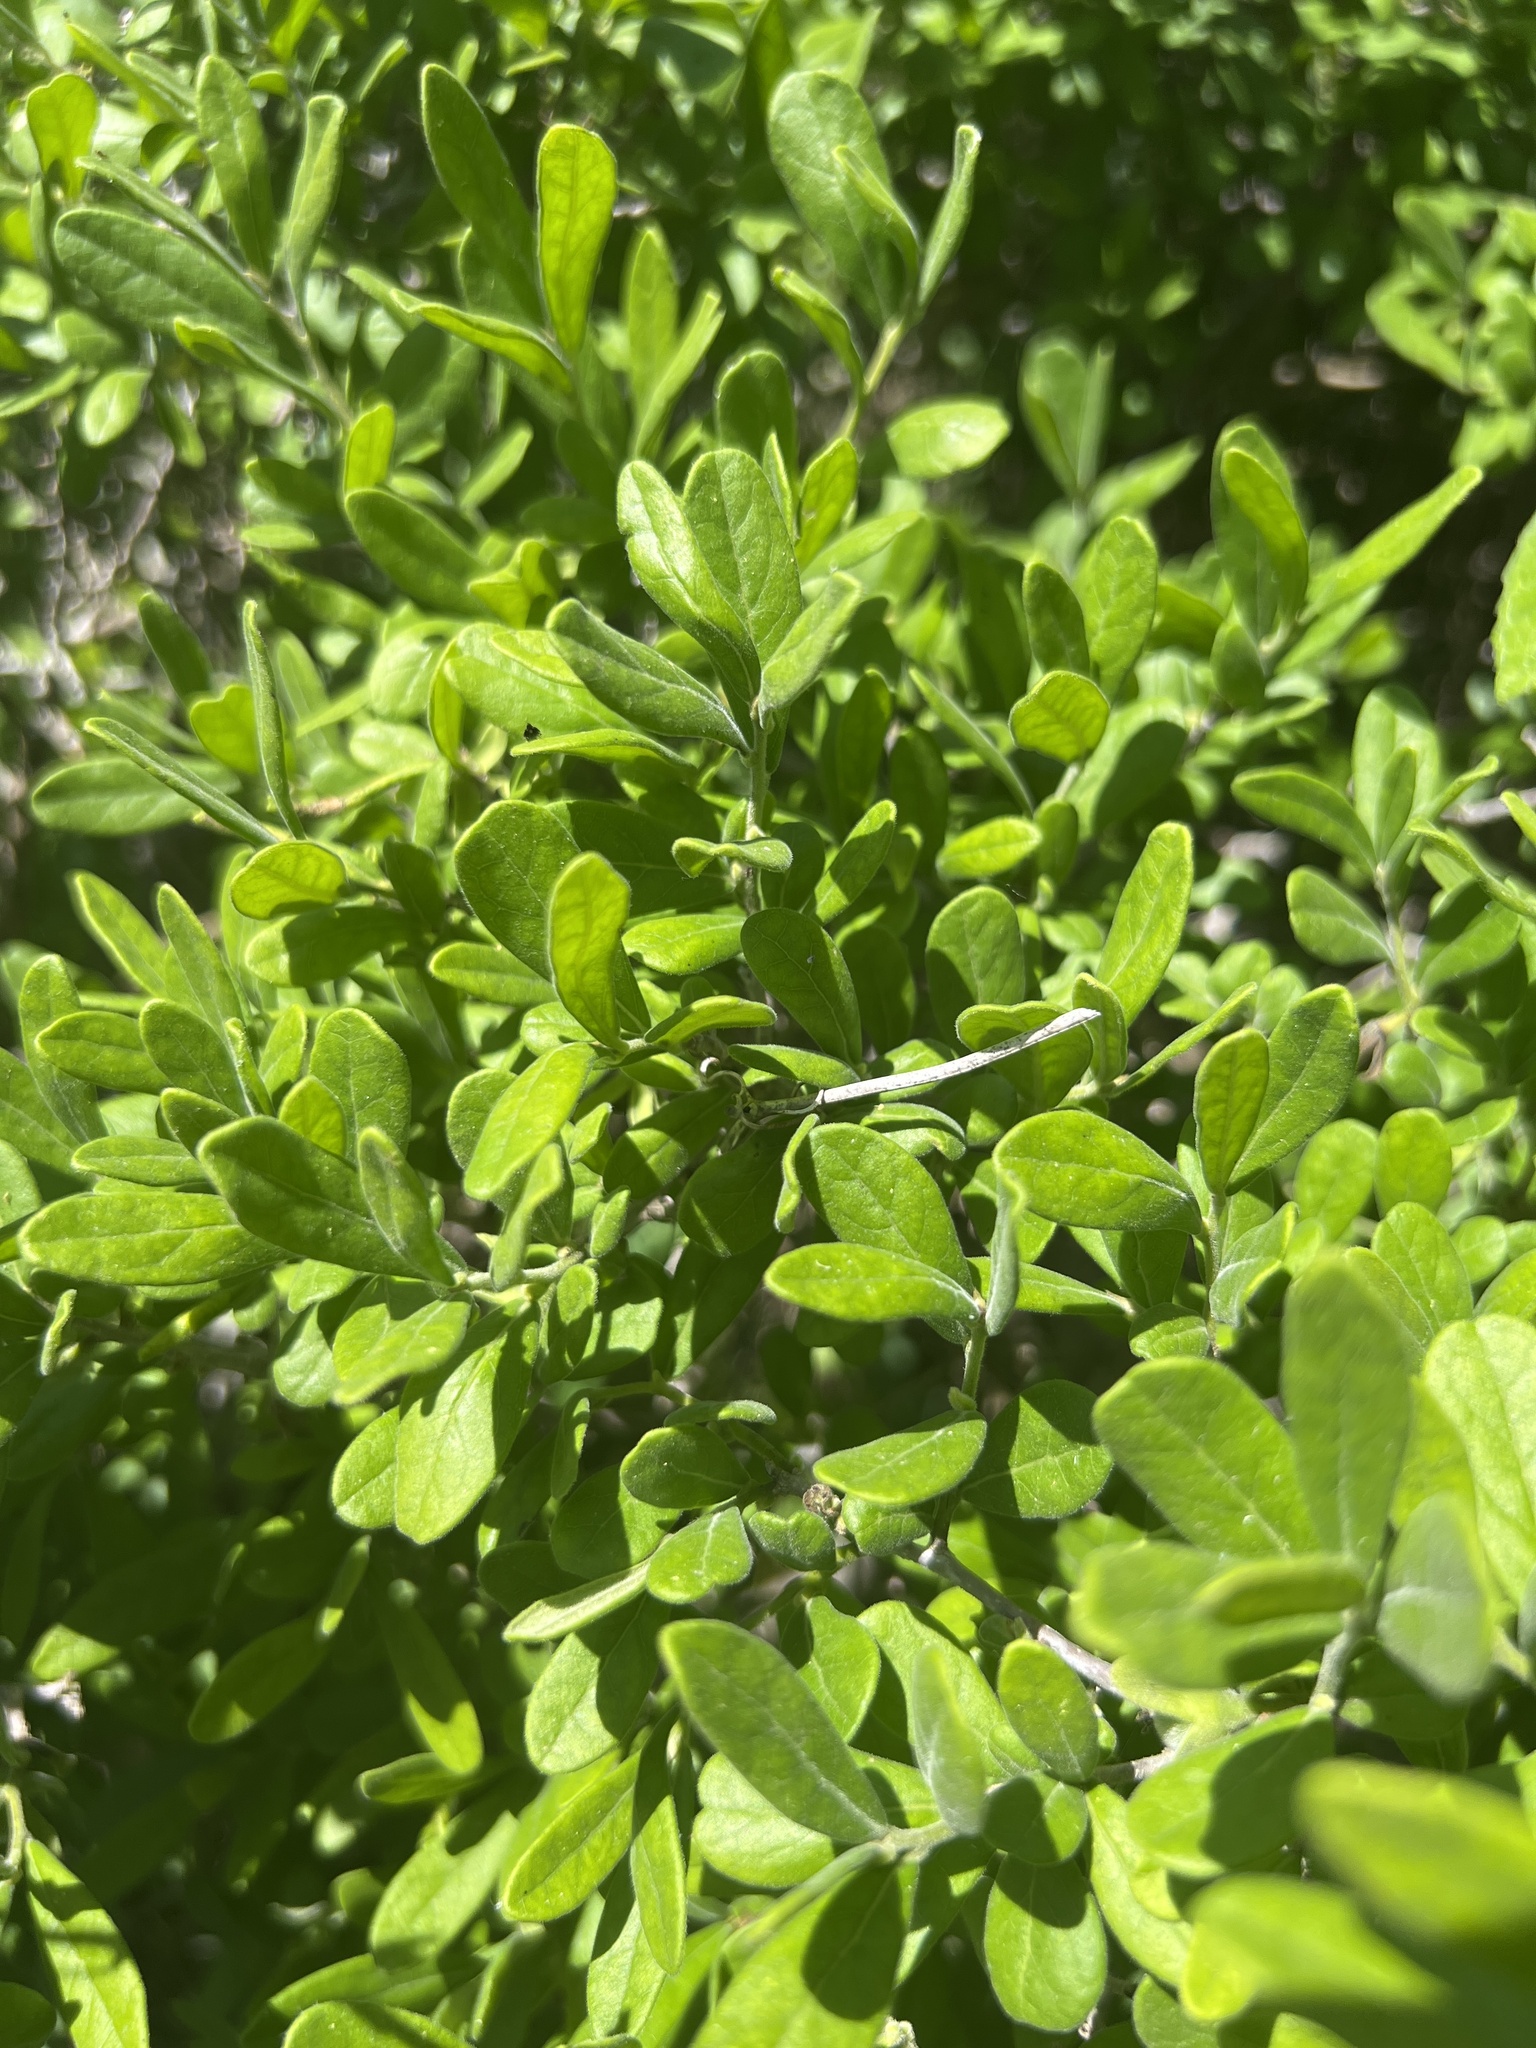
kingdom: Plantae
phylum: Tracheophyta
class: Magnoliopsida
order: Ericales
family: Ebenaceae
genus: Diospyros
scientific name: Diospyros texana
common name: Texas persimmon
